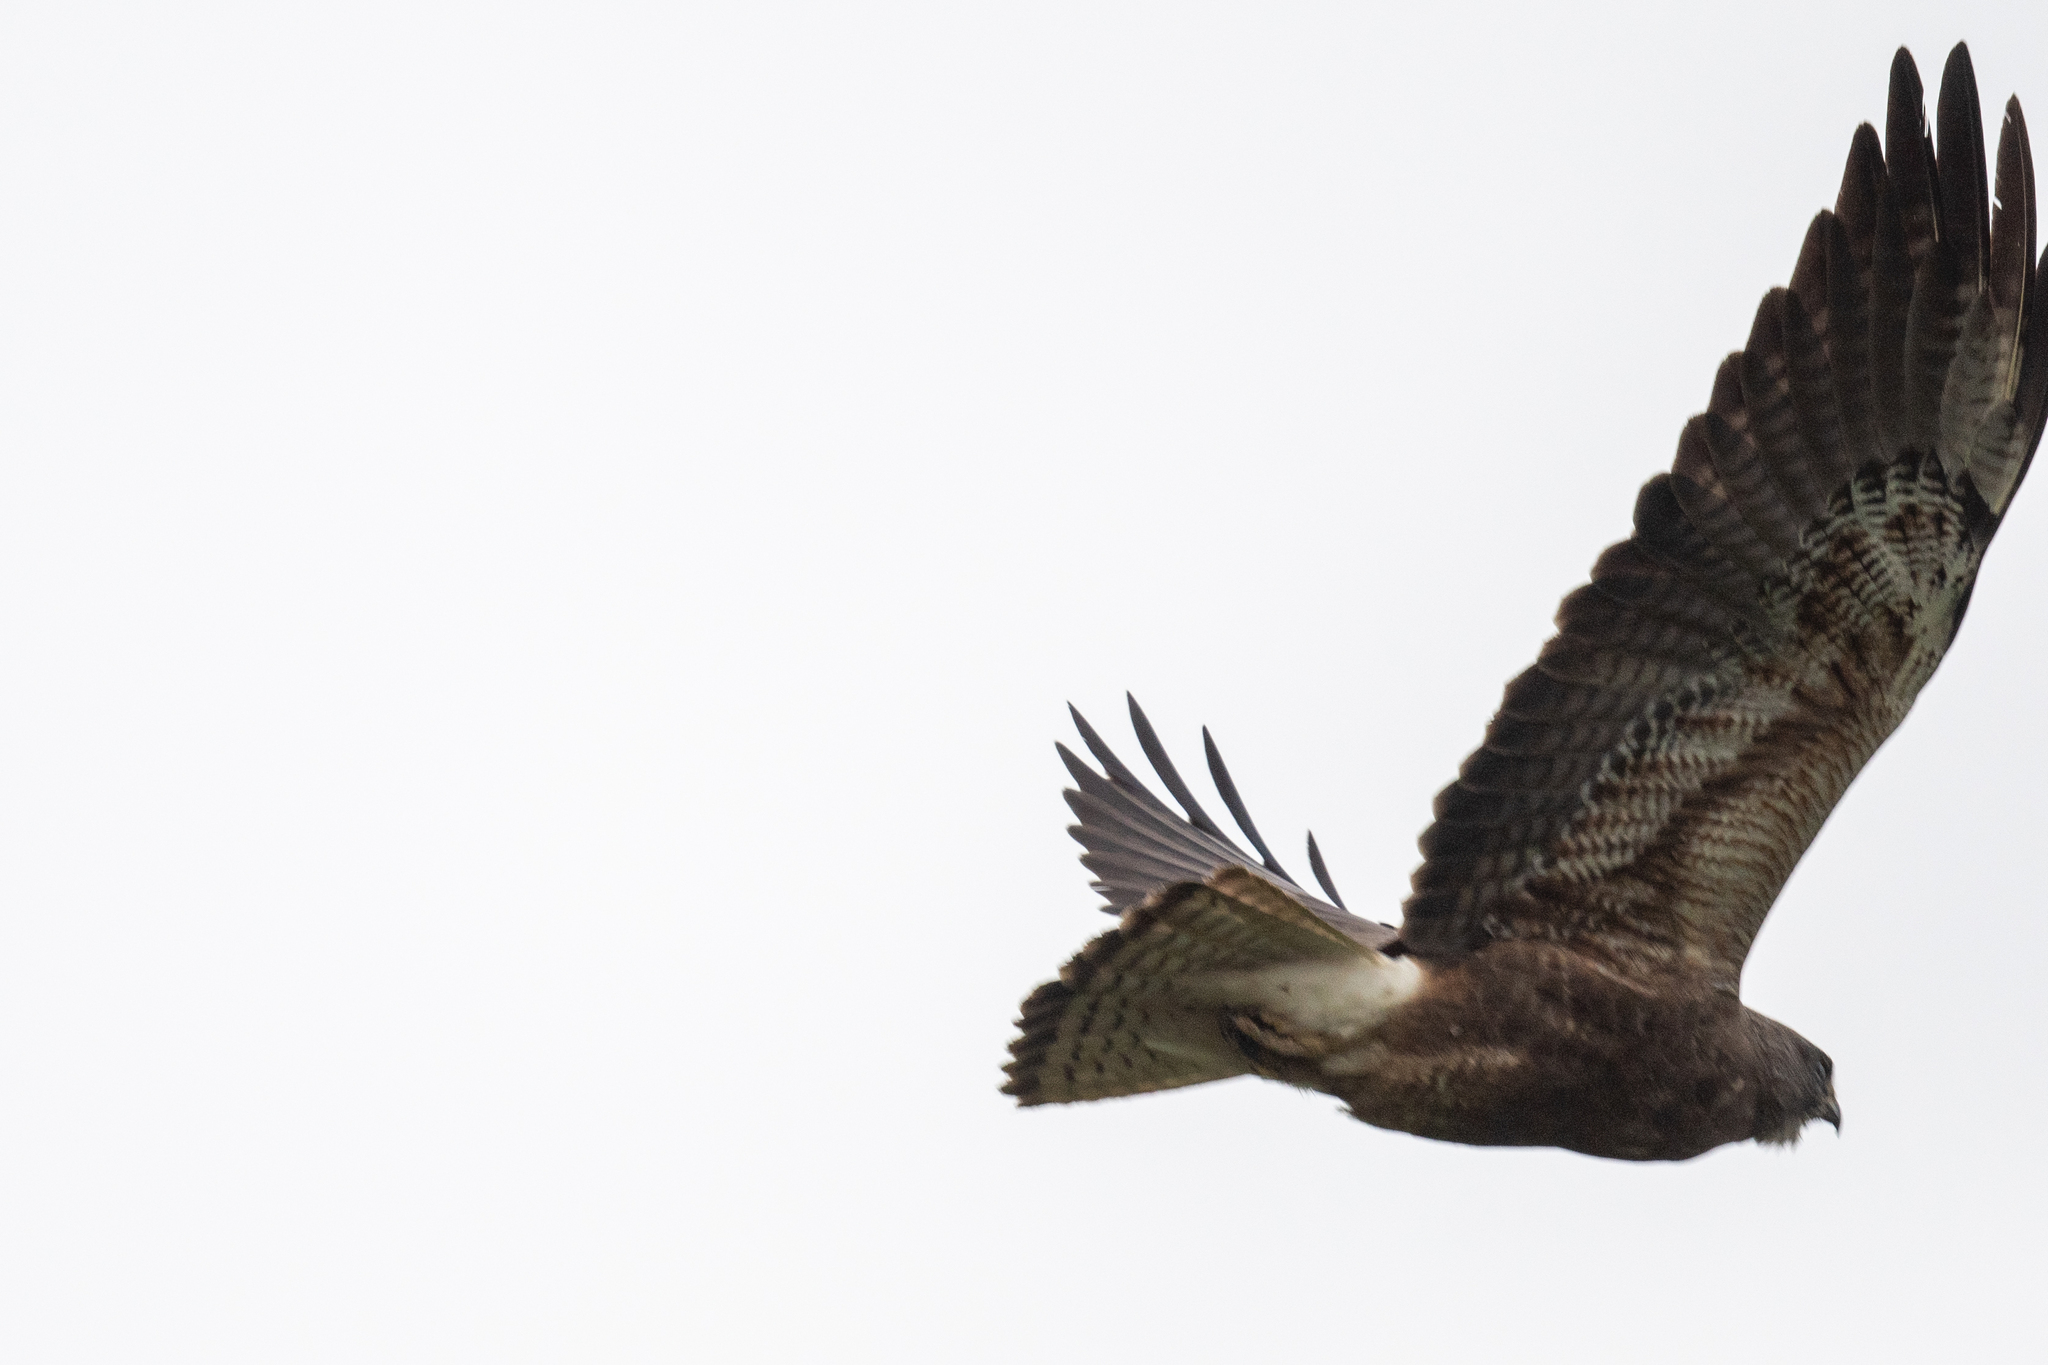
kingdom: Animalia
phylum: Chordata
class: Aves
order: Accipitriformes
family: Accipitridae
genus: Buteo
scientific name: Buteo swainsoni
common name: Swainson's hawk
